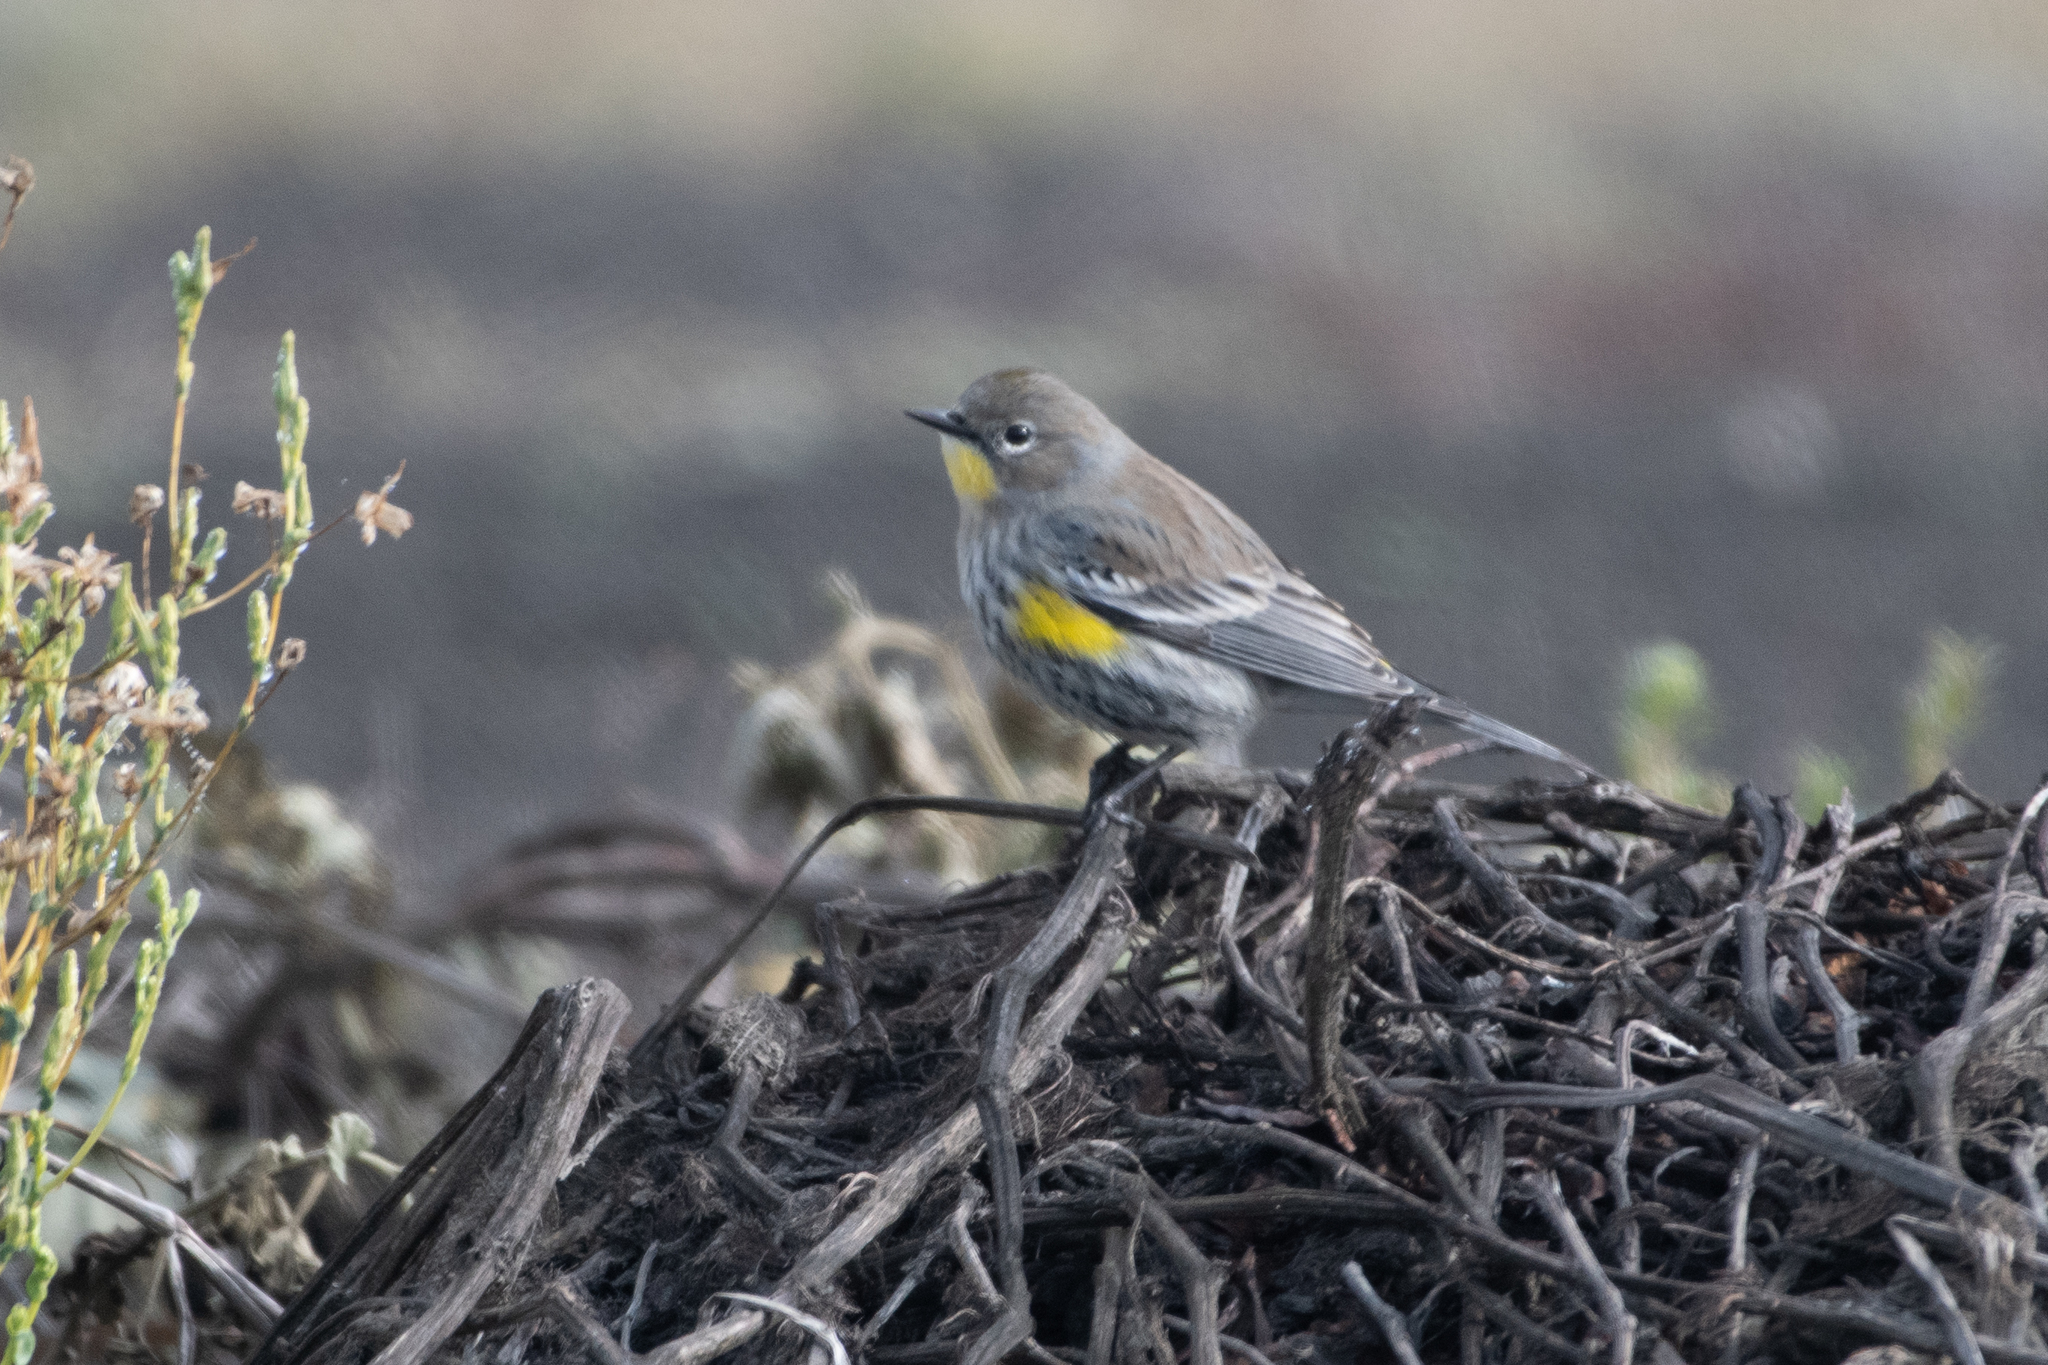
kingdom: Animalia
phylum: Chordata
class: Aves
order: Passeriformes
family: Parulidae
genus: Setophaga
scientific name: Setophaga coronata
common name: Myrtle warbler
